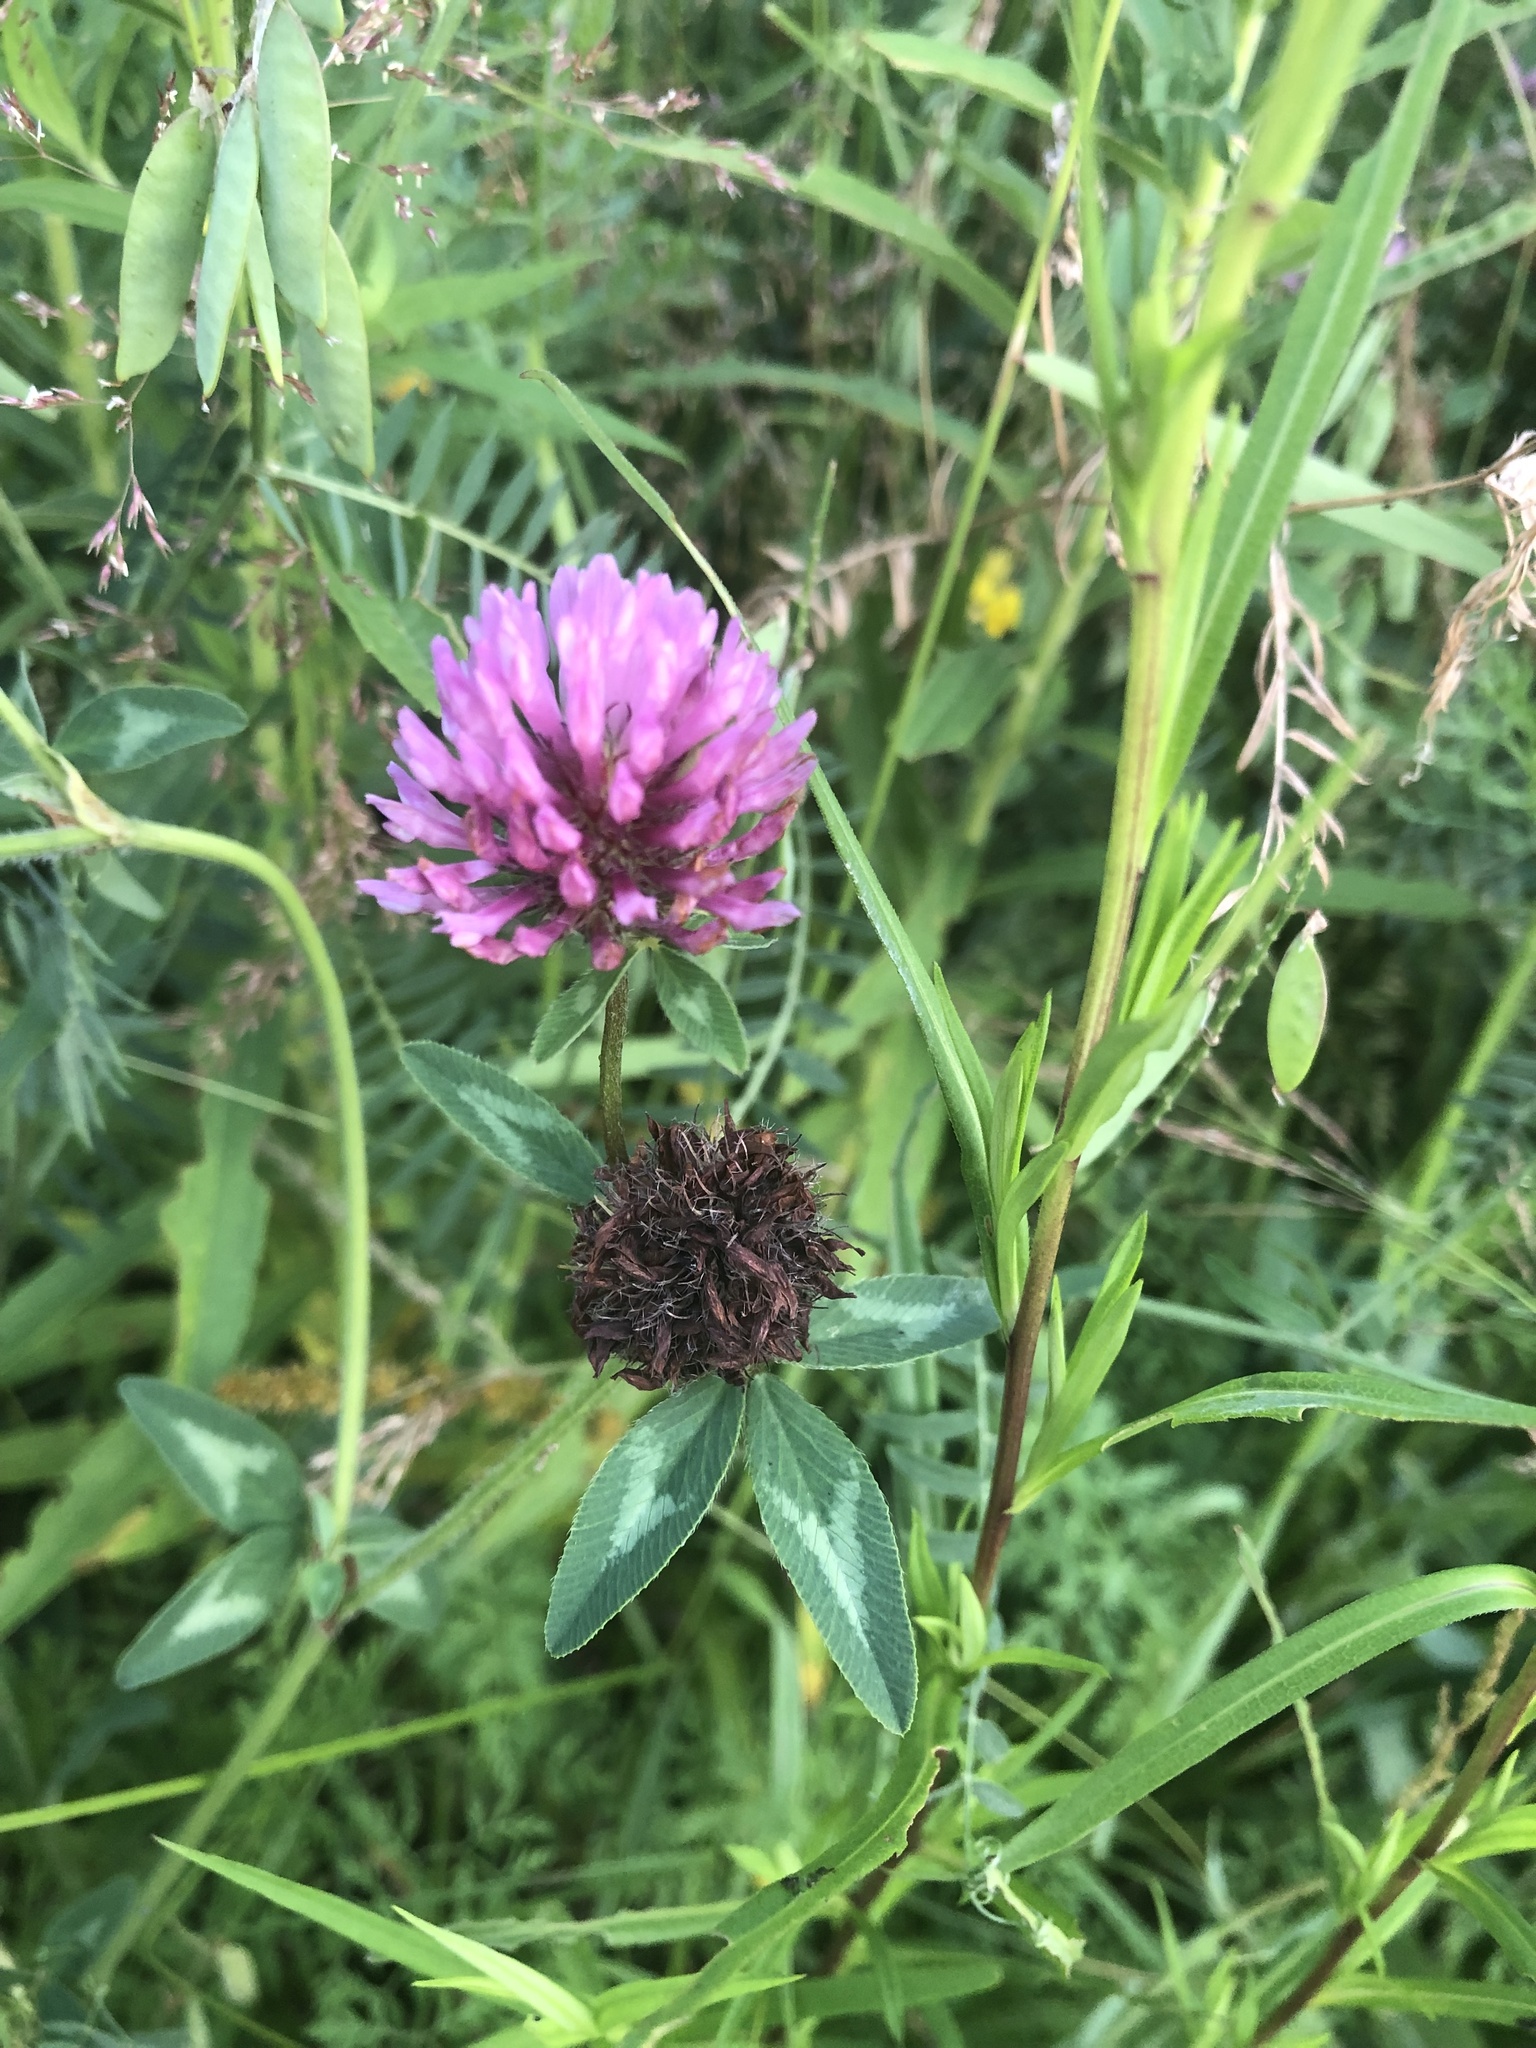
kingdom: Plantae
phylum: Tracheophyta
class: Magnoliopsida
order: Fabales
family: Fabaceae
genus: Trifolium
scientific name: Trifolium pratense
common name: Red clover
